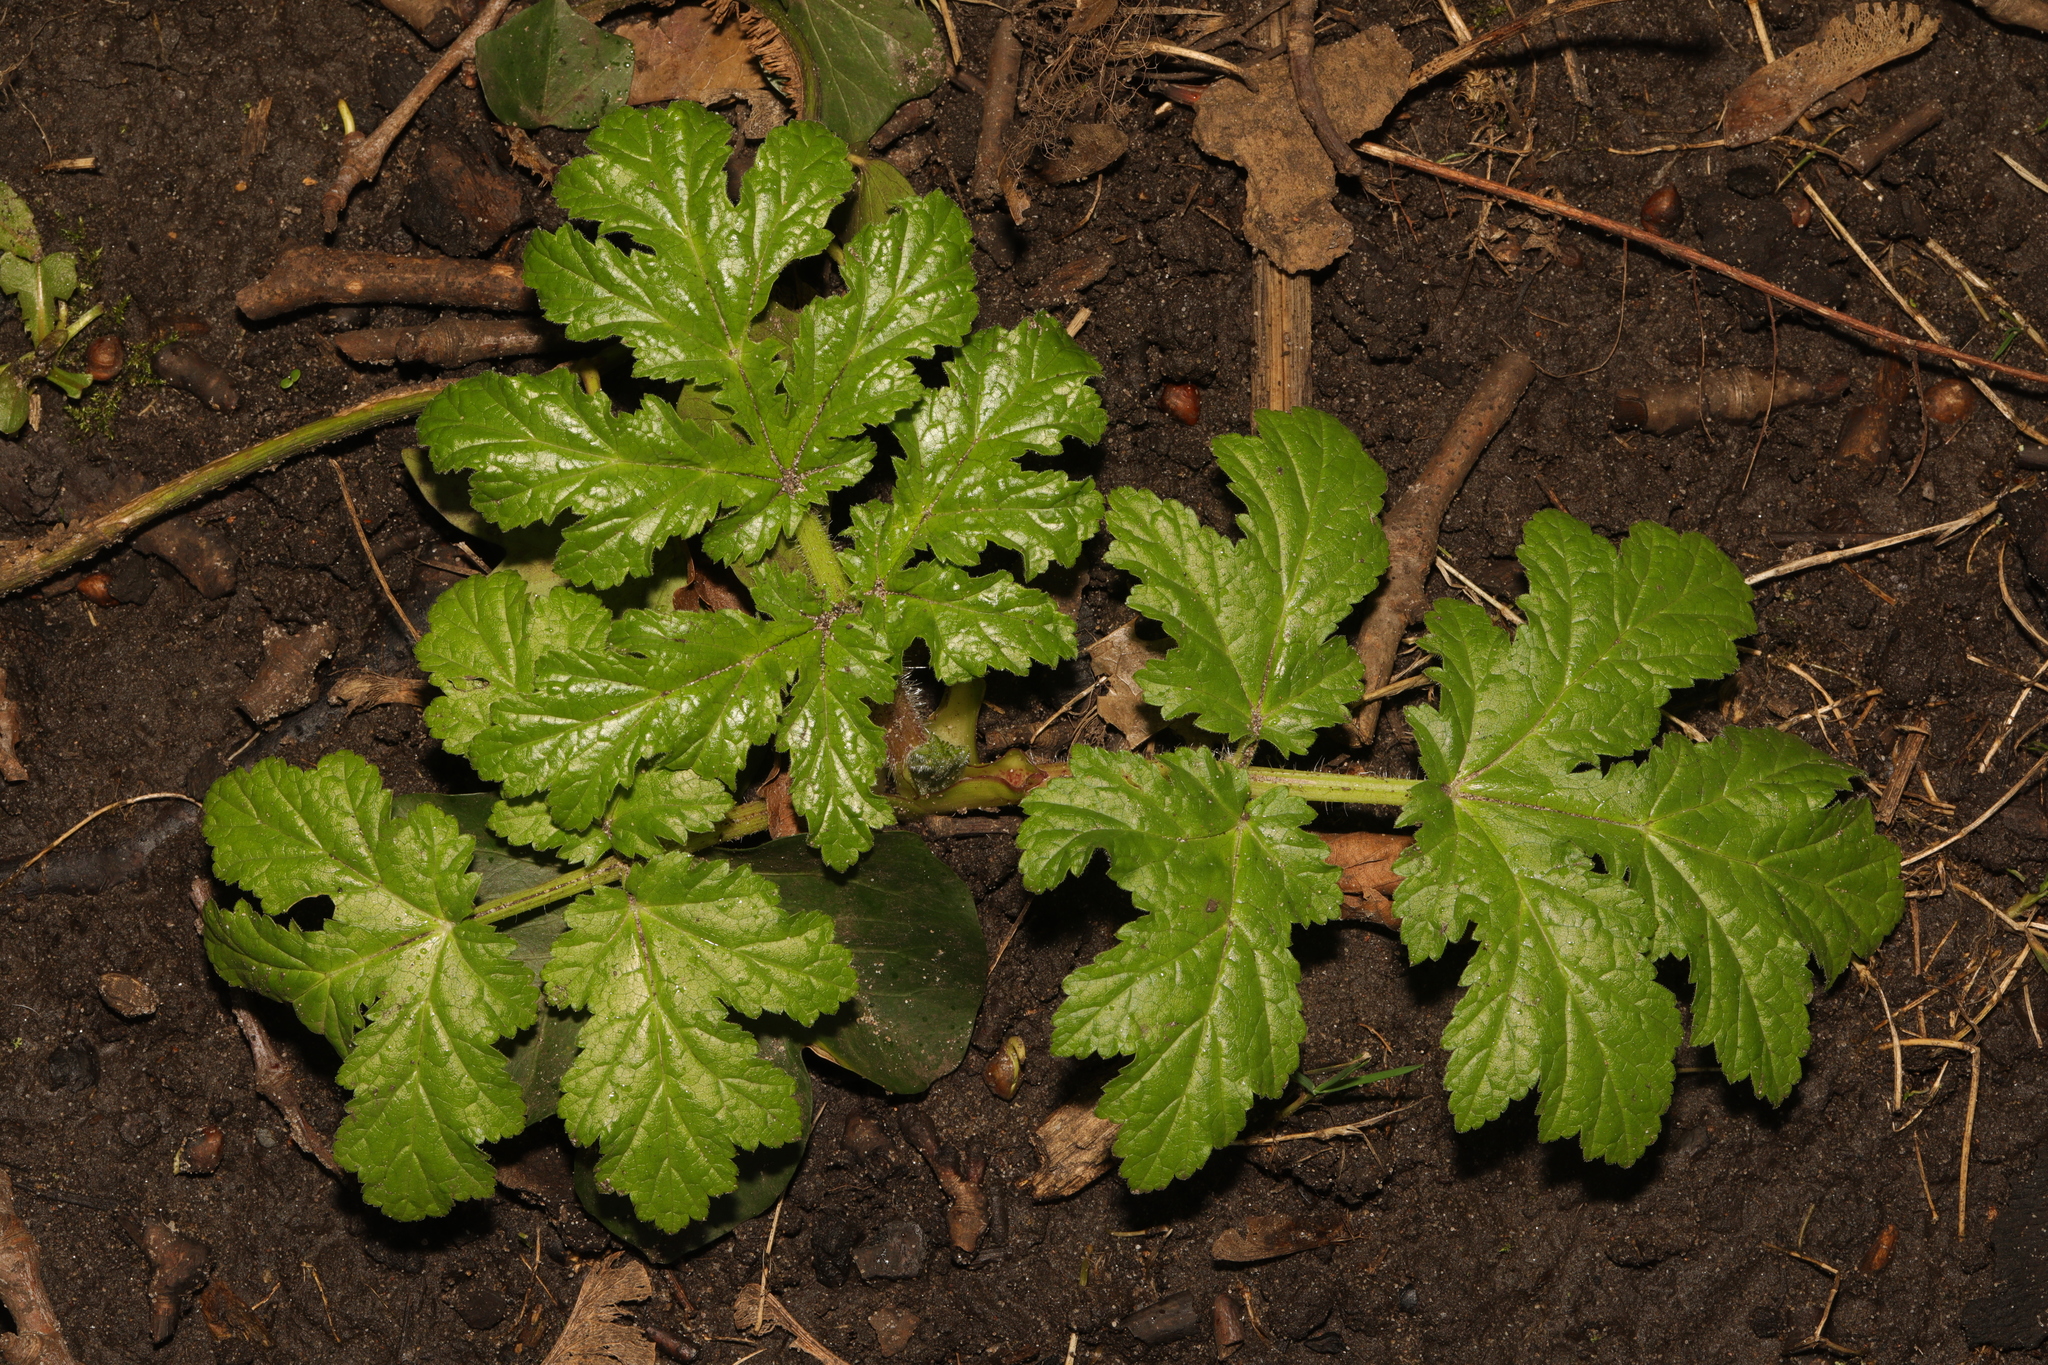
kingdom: Plantae
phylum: Tracheophyta
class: Magnoliopsida
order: Apiales
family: Apiaceae
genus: Heracleum
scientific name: Heracleum sphondylium
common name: Hogweed
